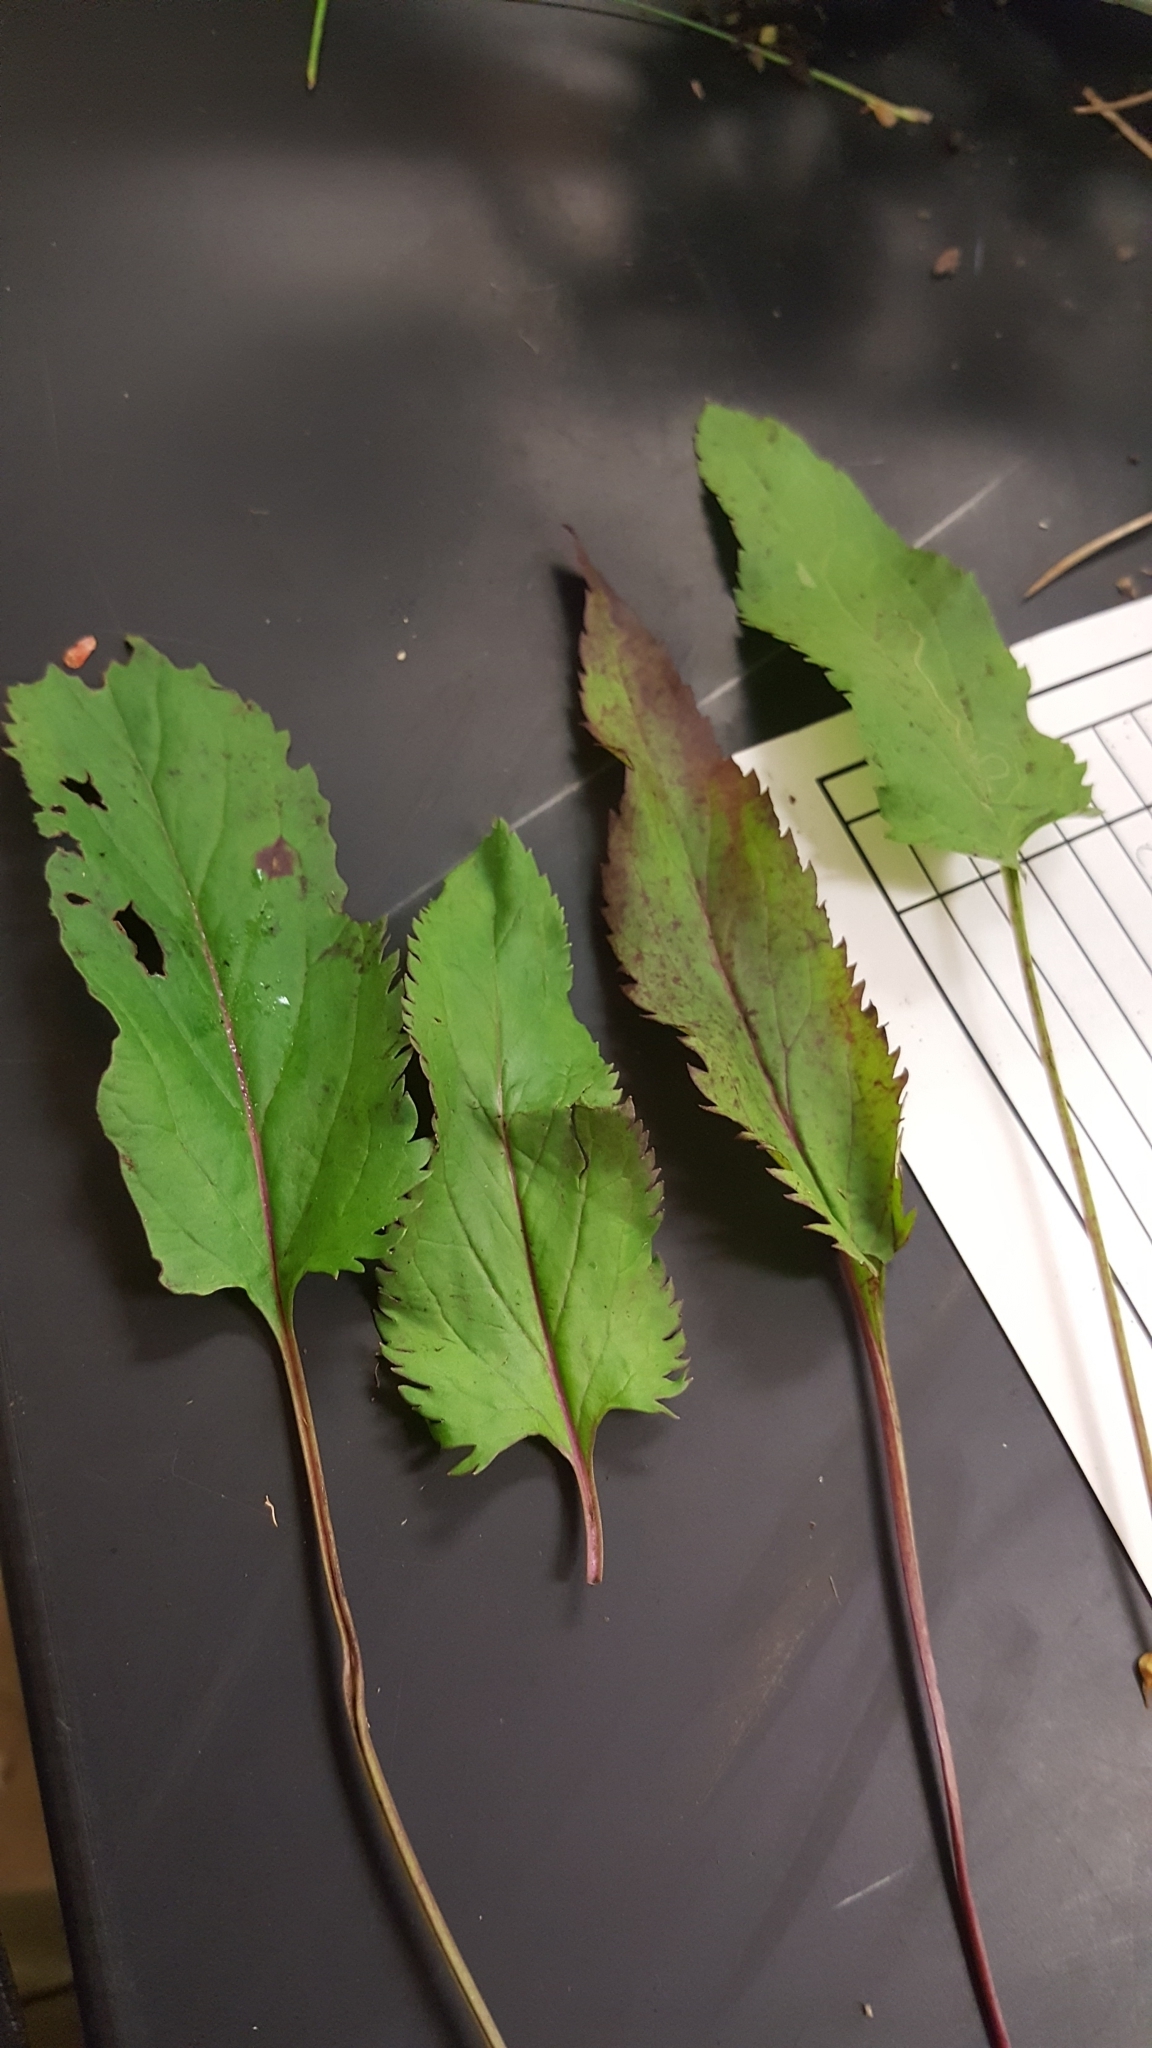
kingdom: Plantae
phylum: Tracheophyta
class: Magnoliopsida
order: Asterales
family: Asteraceae
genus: Packera
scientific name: Packera schweinitziana
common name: Schweinitz's ragwort
